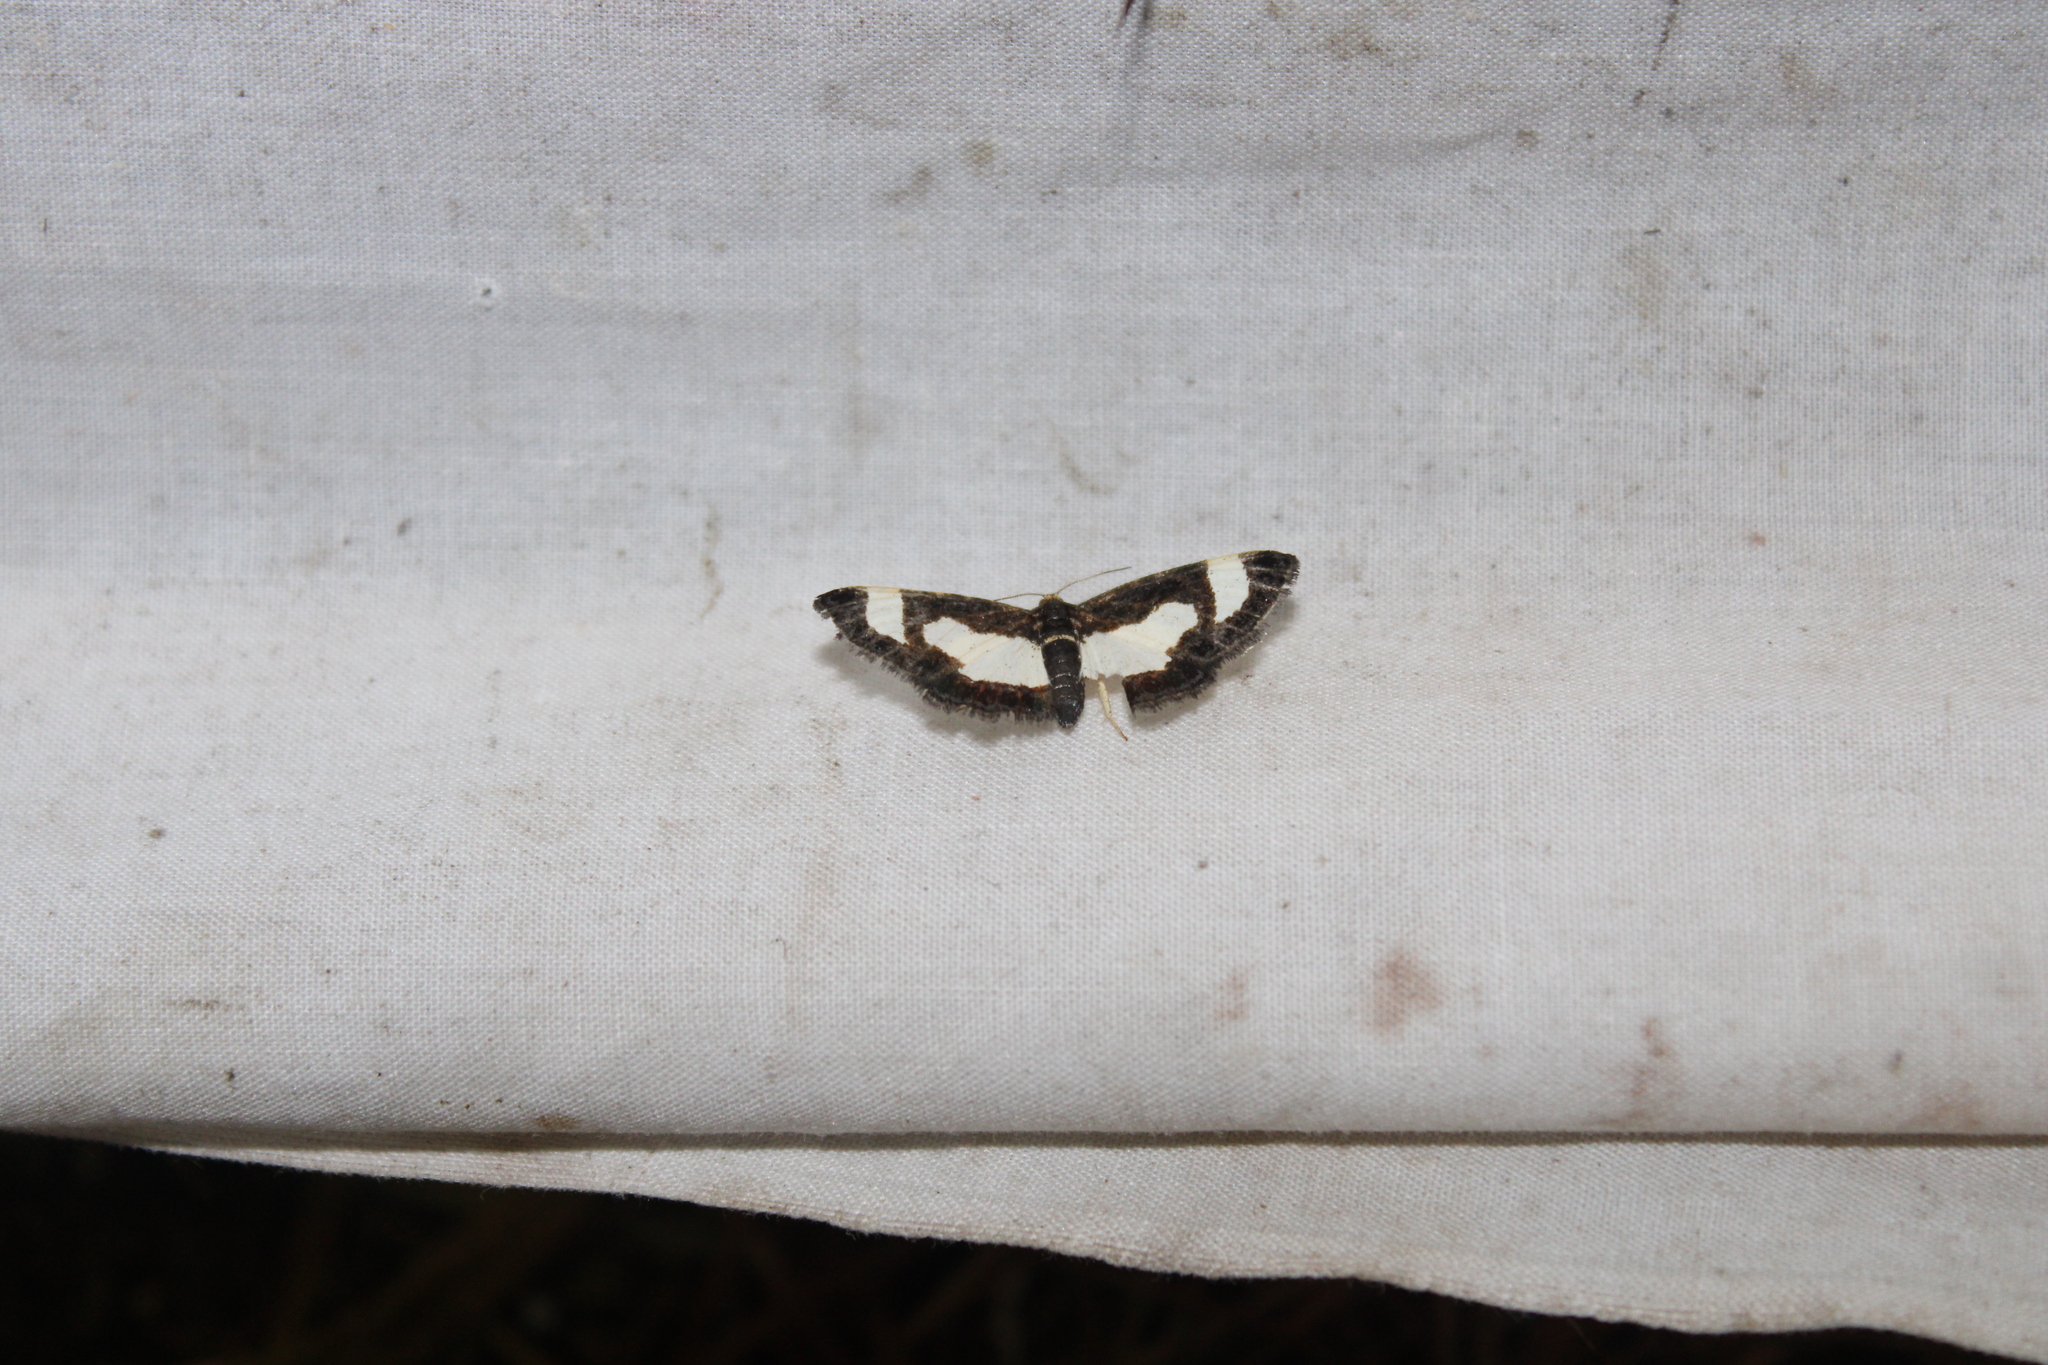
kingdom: Animalia
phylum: Arthropoda
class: Insecta
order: Lepidoptera
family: Geometridae
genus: Heliomata
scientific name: Heliomata cycladata
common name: Common spring moth
